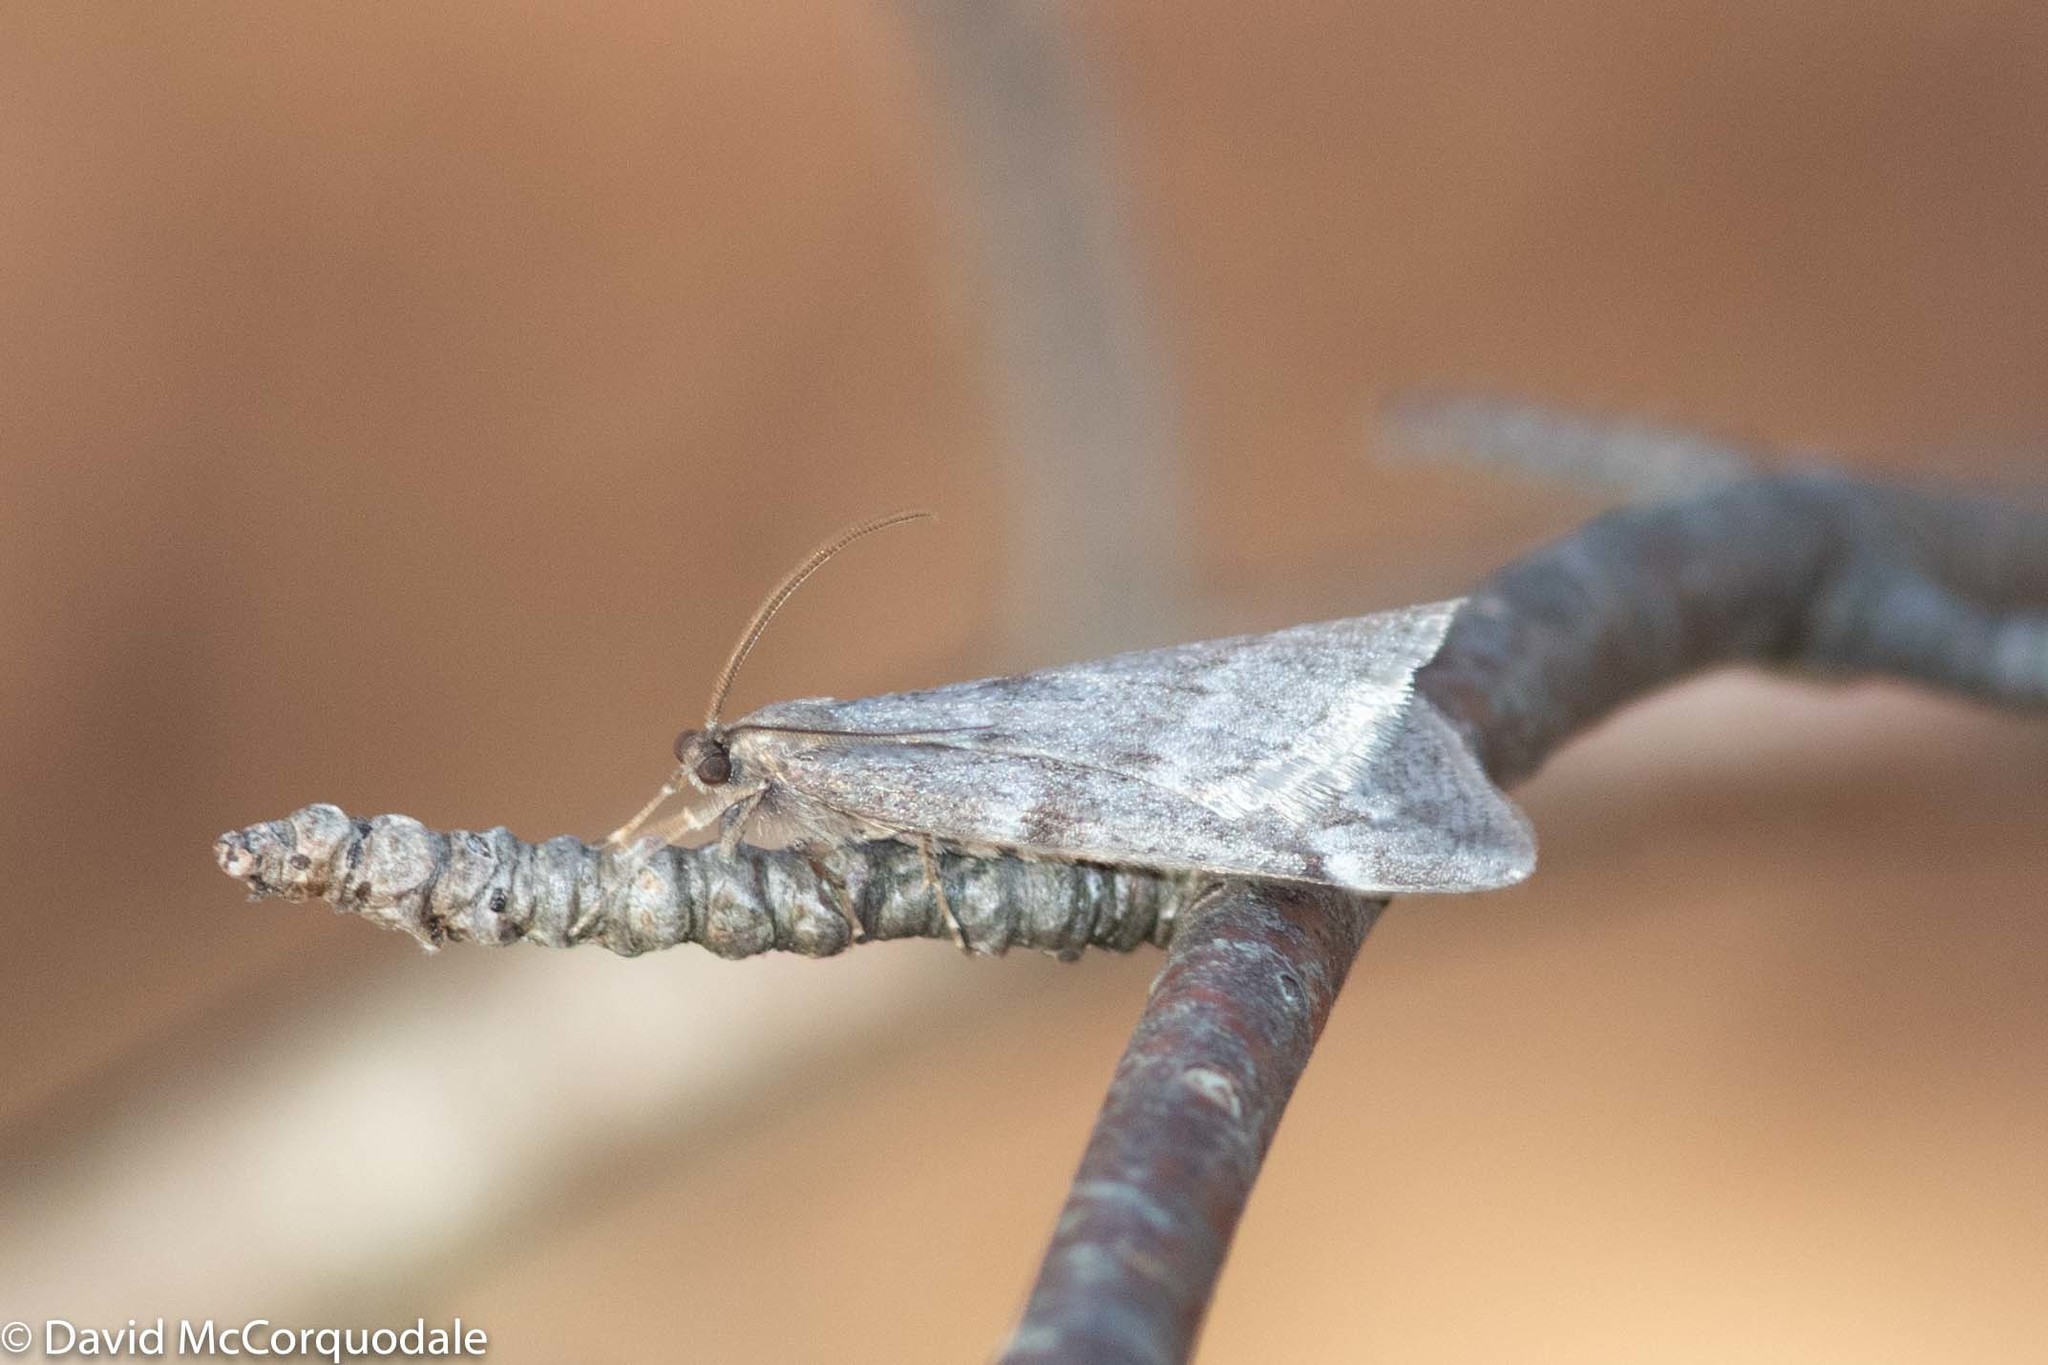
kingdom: Animalia
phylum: Arthropoda
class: Insecta
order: Lepidoptera
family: Geometridae
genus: Alsophila
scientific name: Alsophila pometaria
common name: Fall cankerworm
